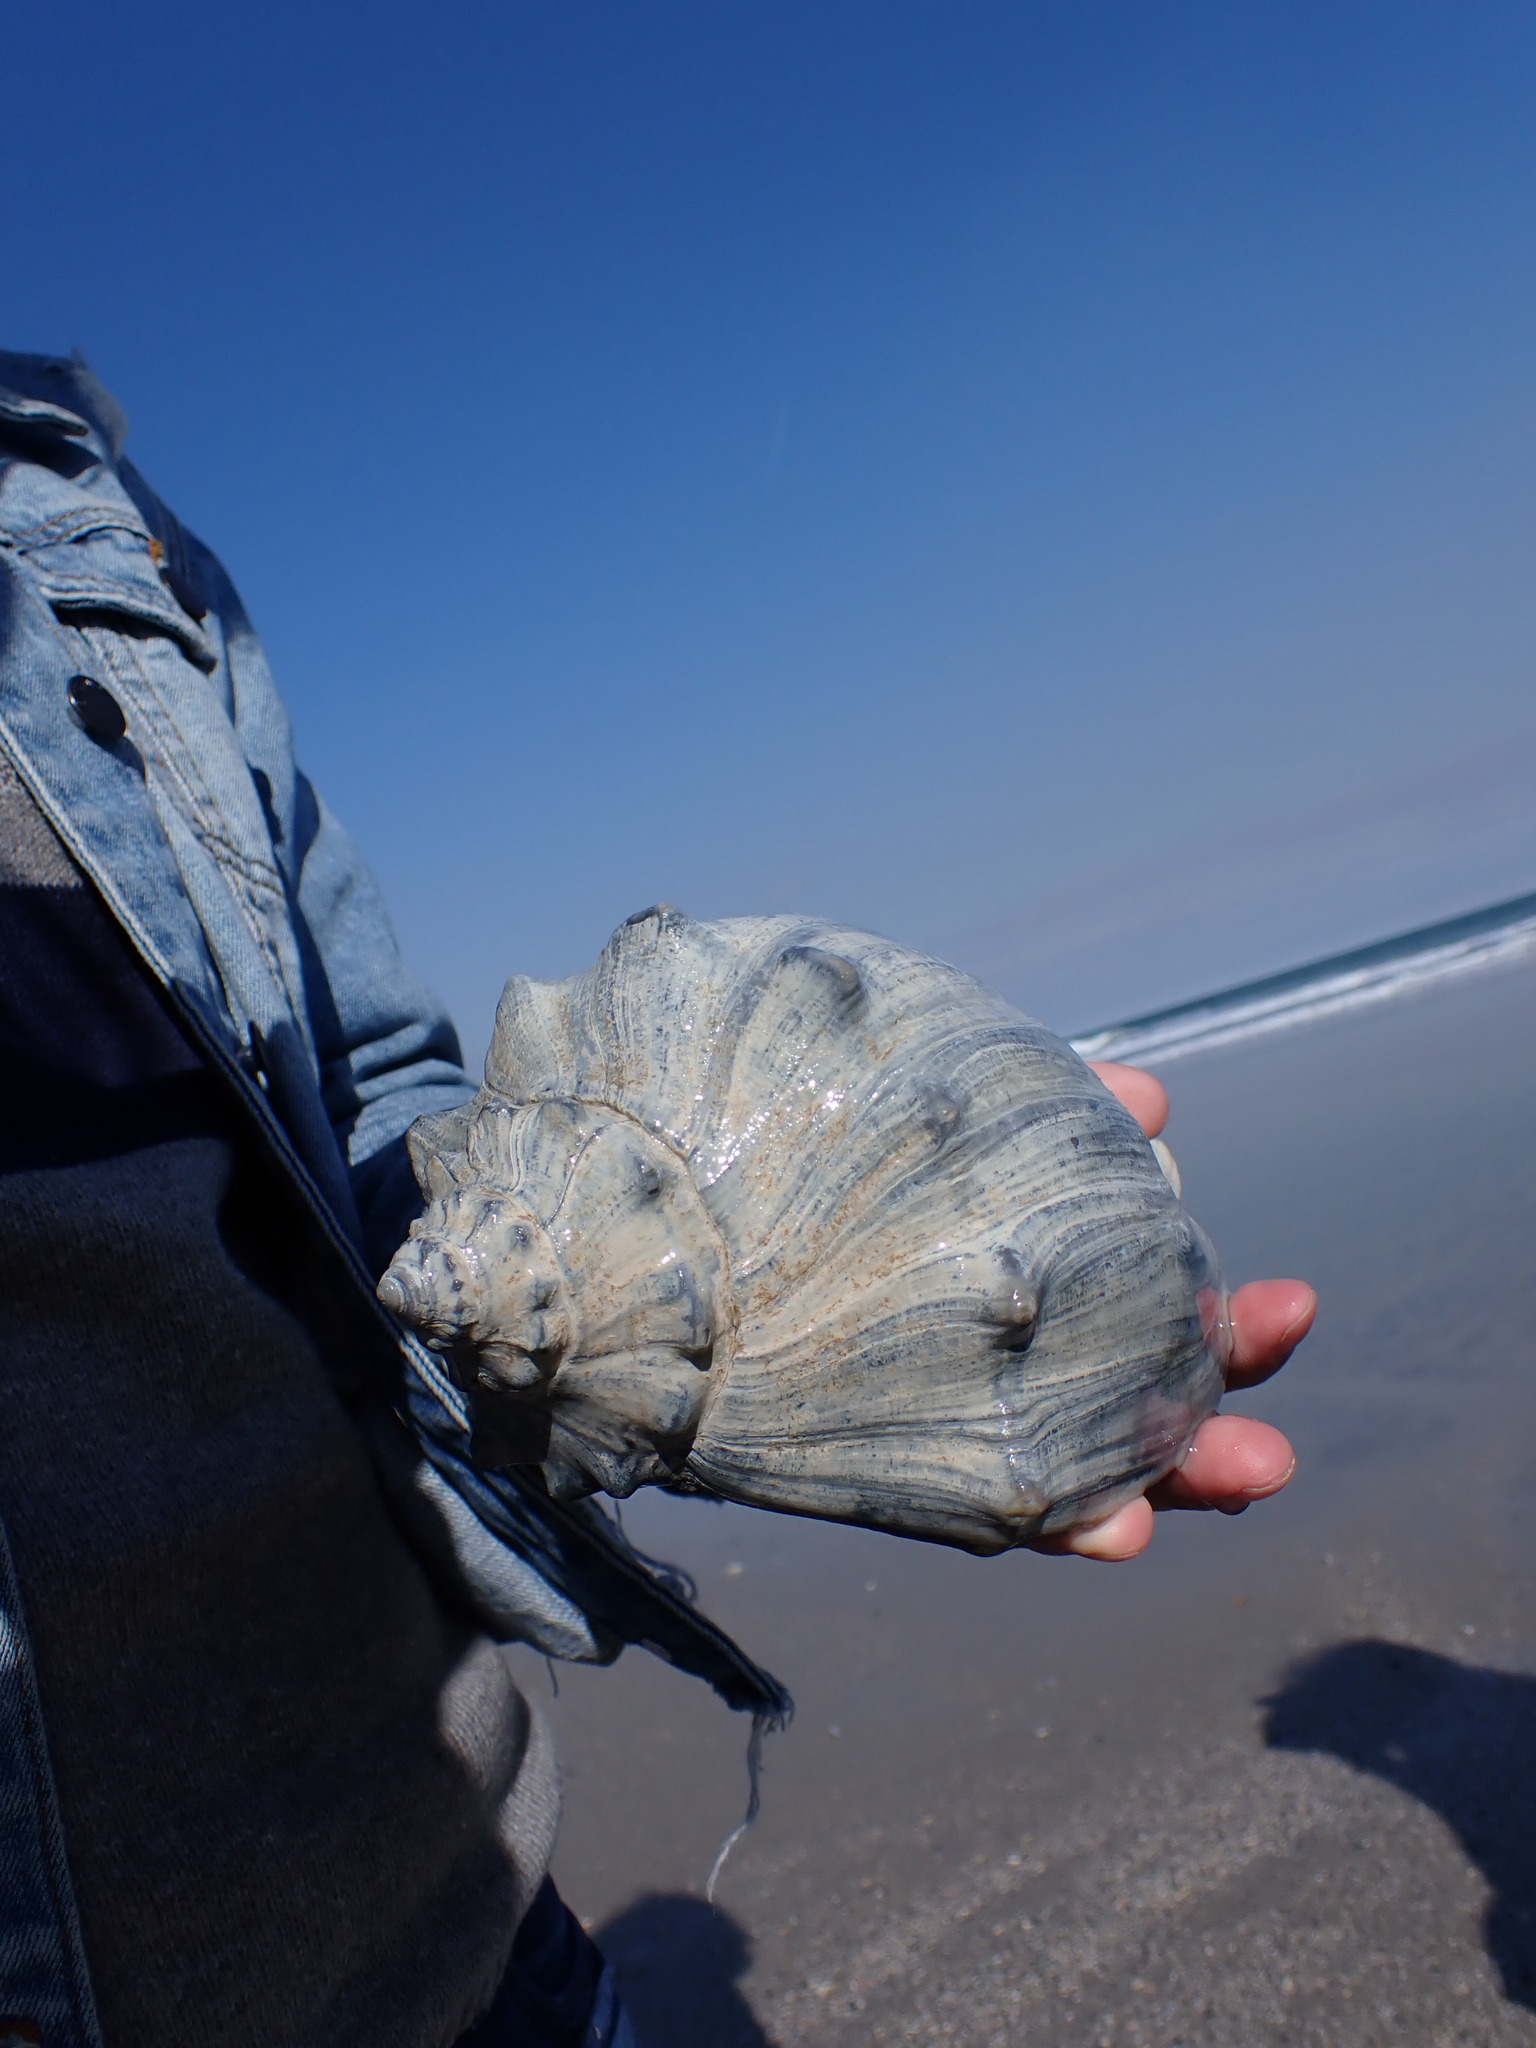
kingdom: Animalia
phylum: Mollusca
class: Gastropoda
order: Neogastropoda
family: Busyconidae
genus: Busycon
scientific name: Busycon carica
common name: Knobbed whelk
